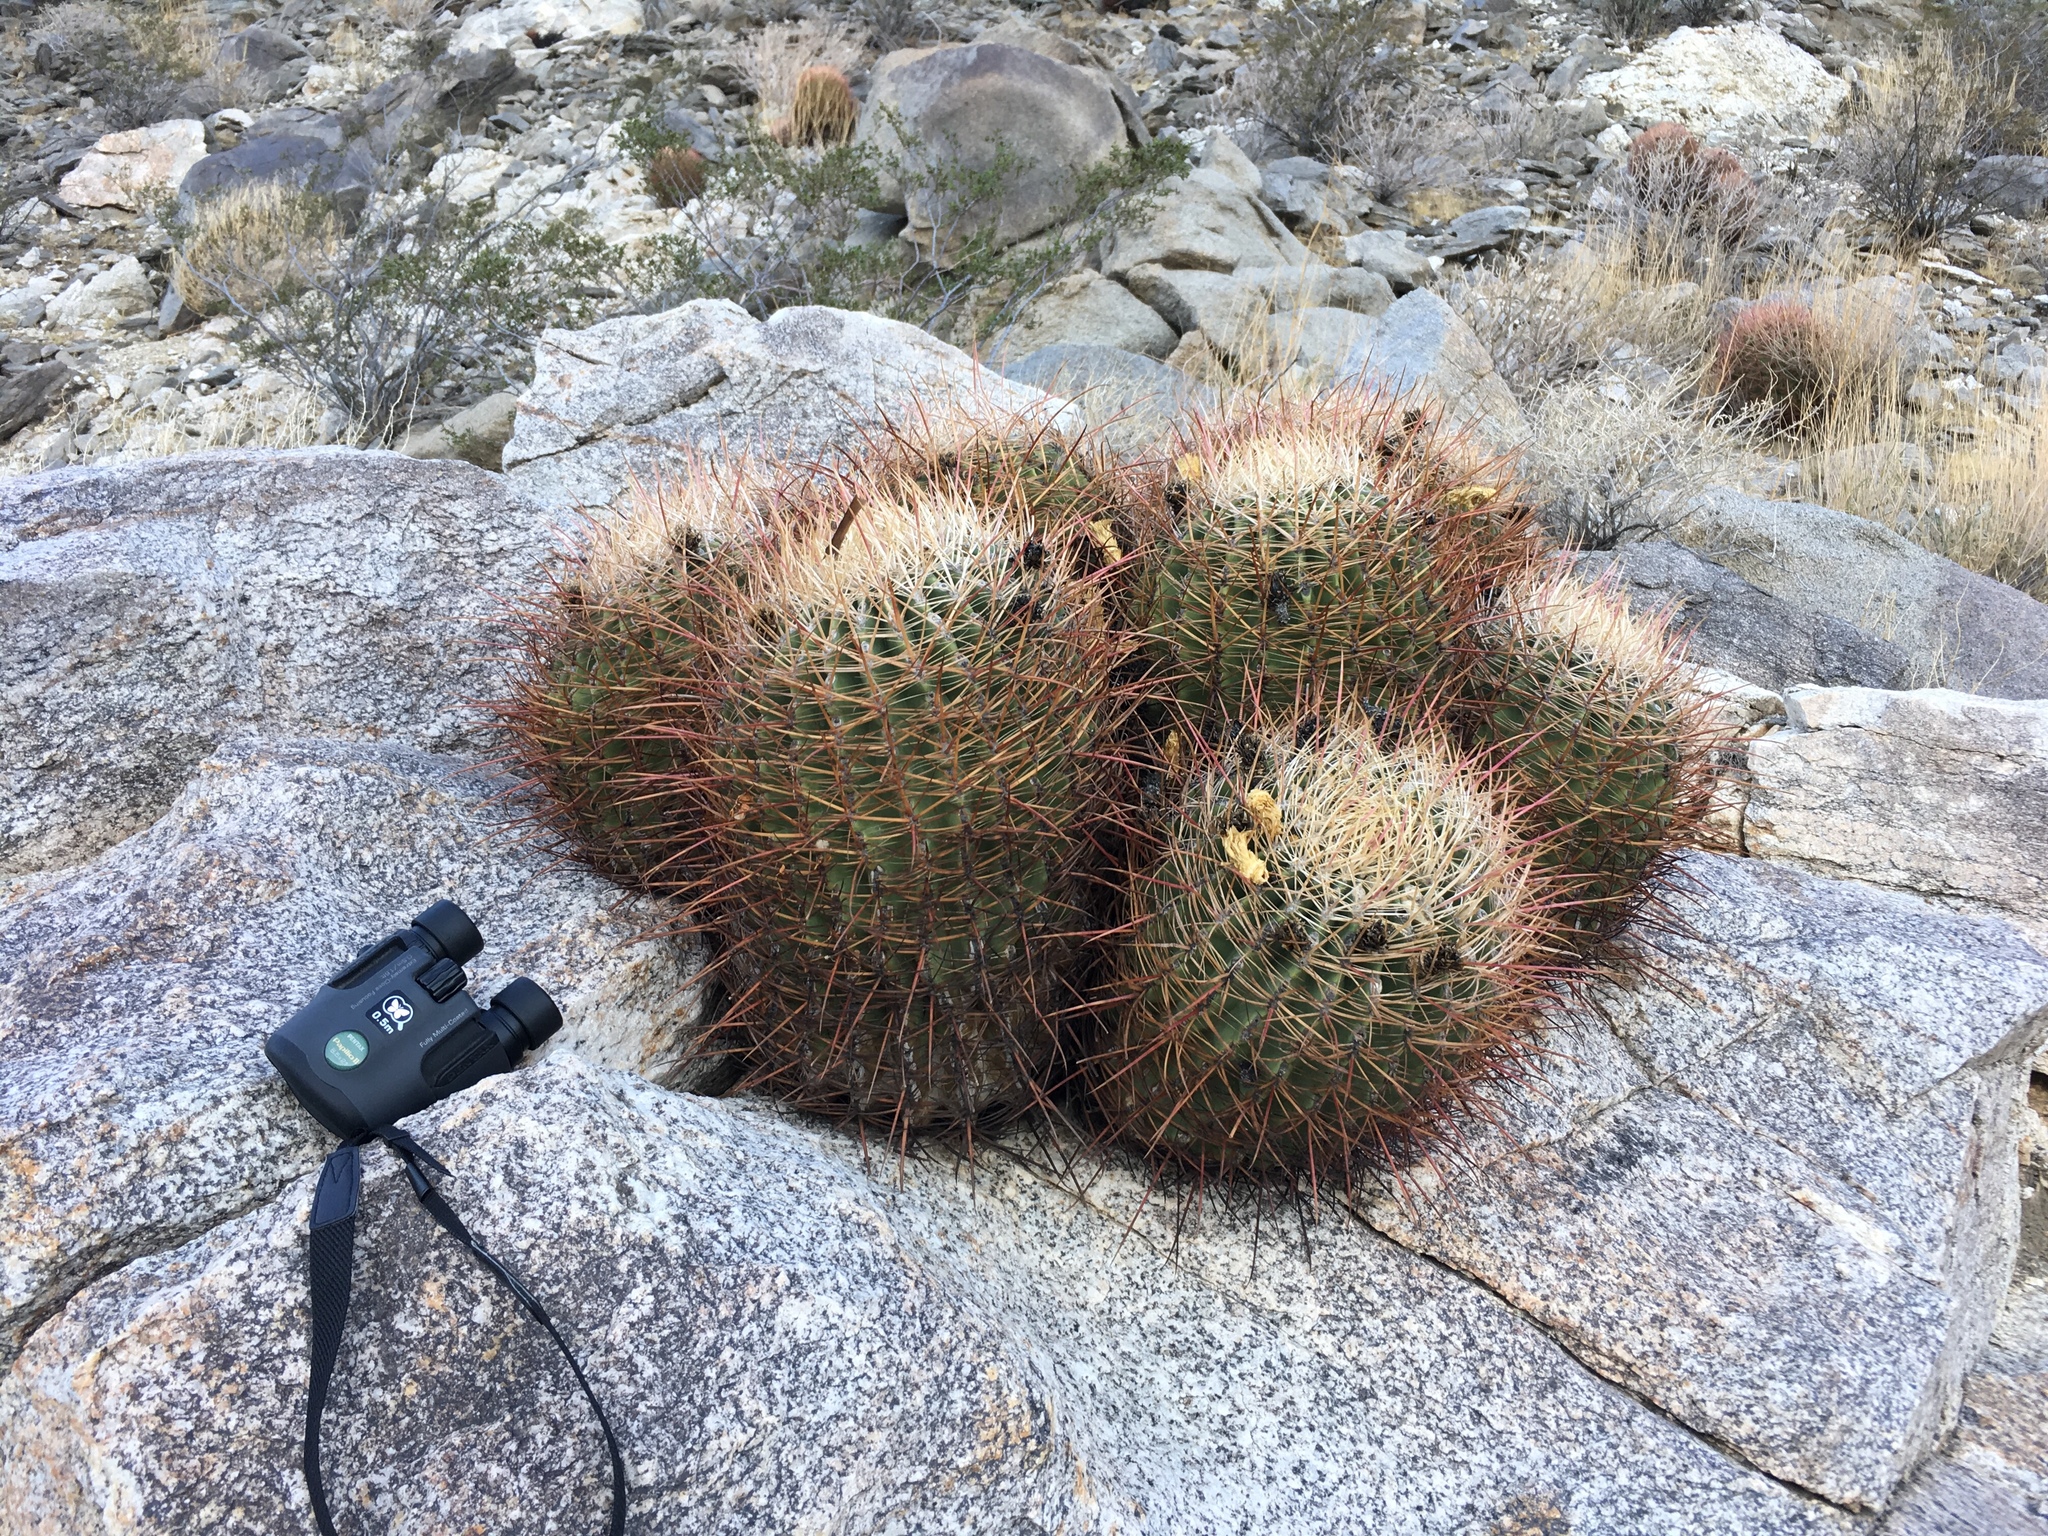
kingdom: Plantae
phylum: Tracheophyta
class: Magnoliopsida
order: Caryophyllales
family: Cactaceae
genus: Ferocactus
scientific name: Ferocactus cylindraceus
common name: California barrel cactus
